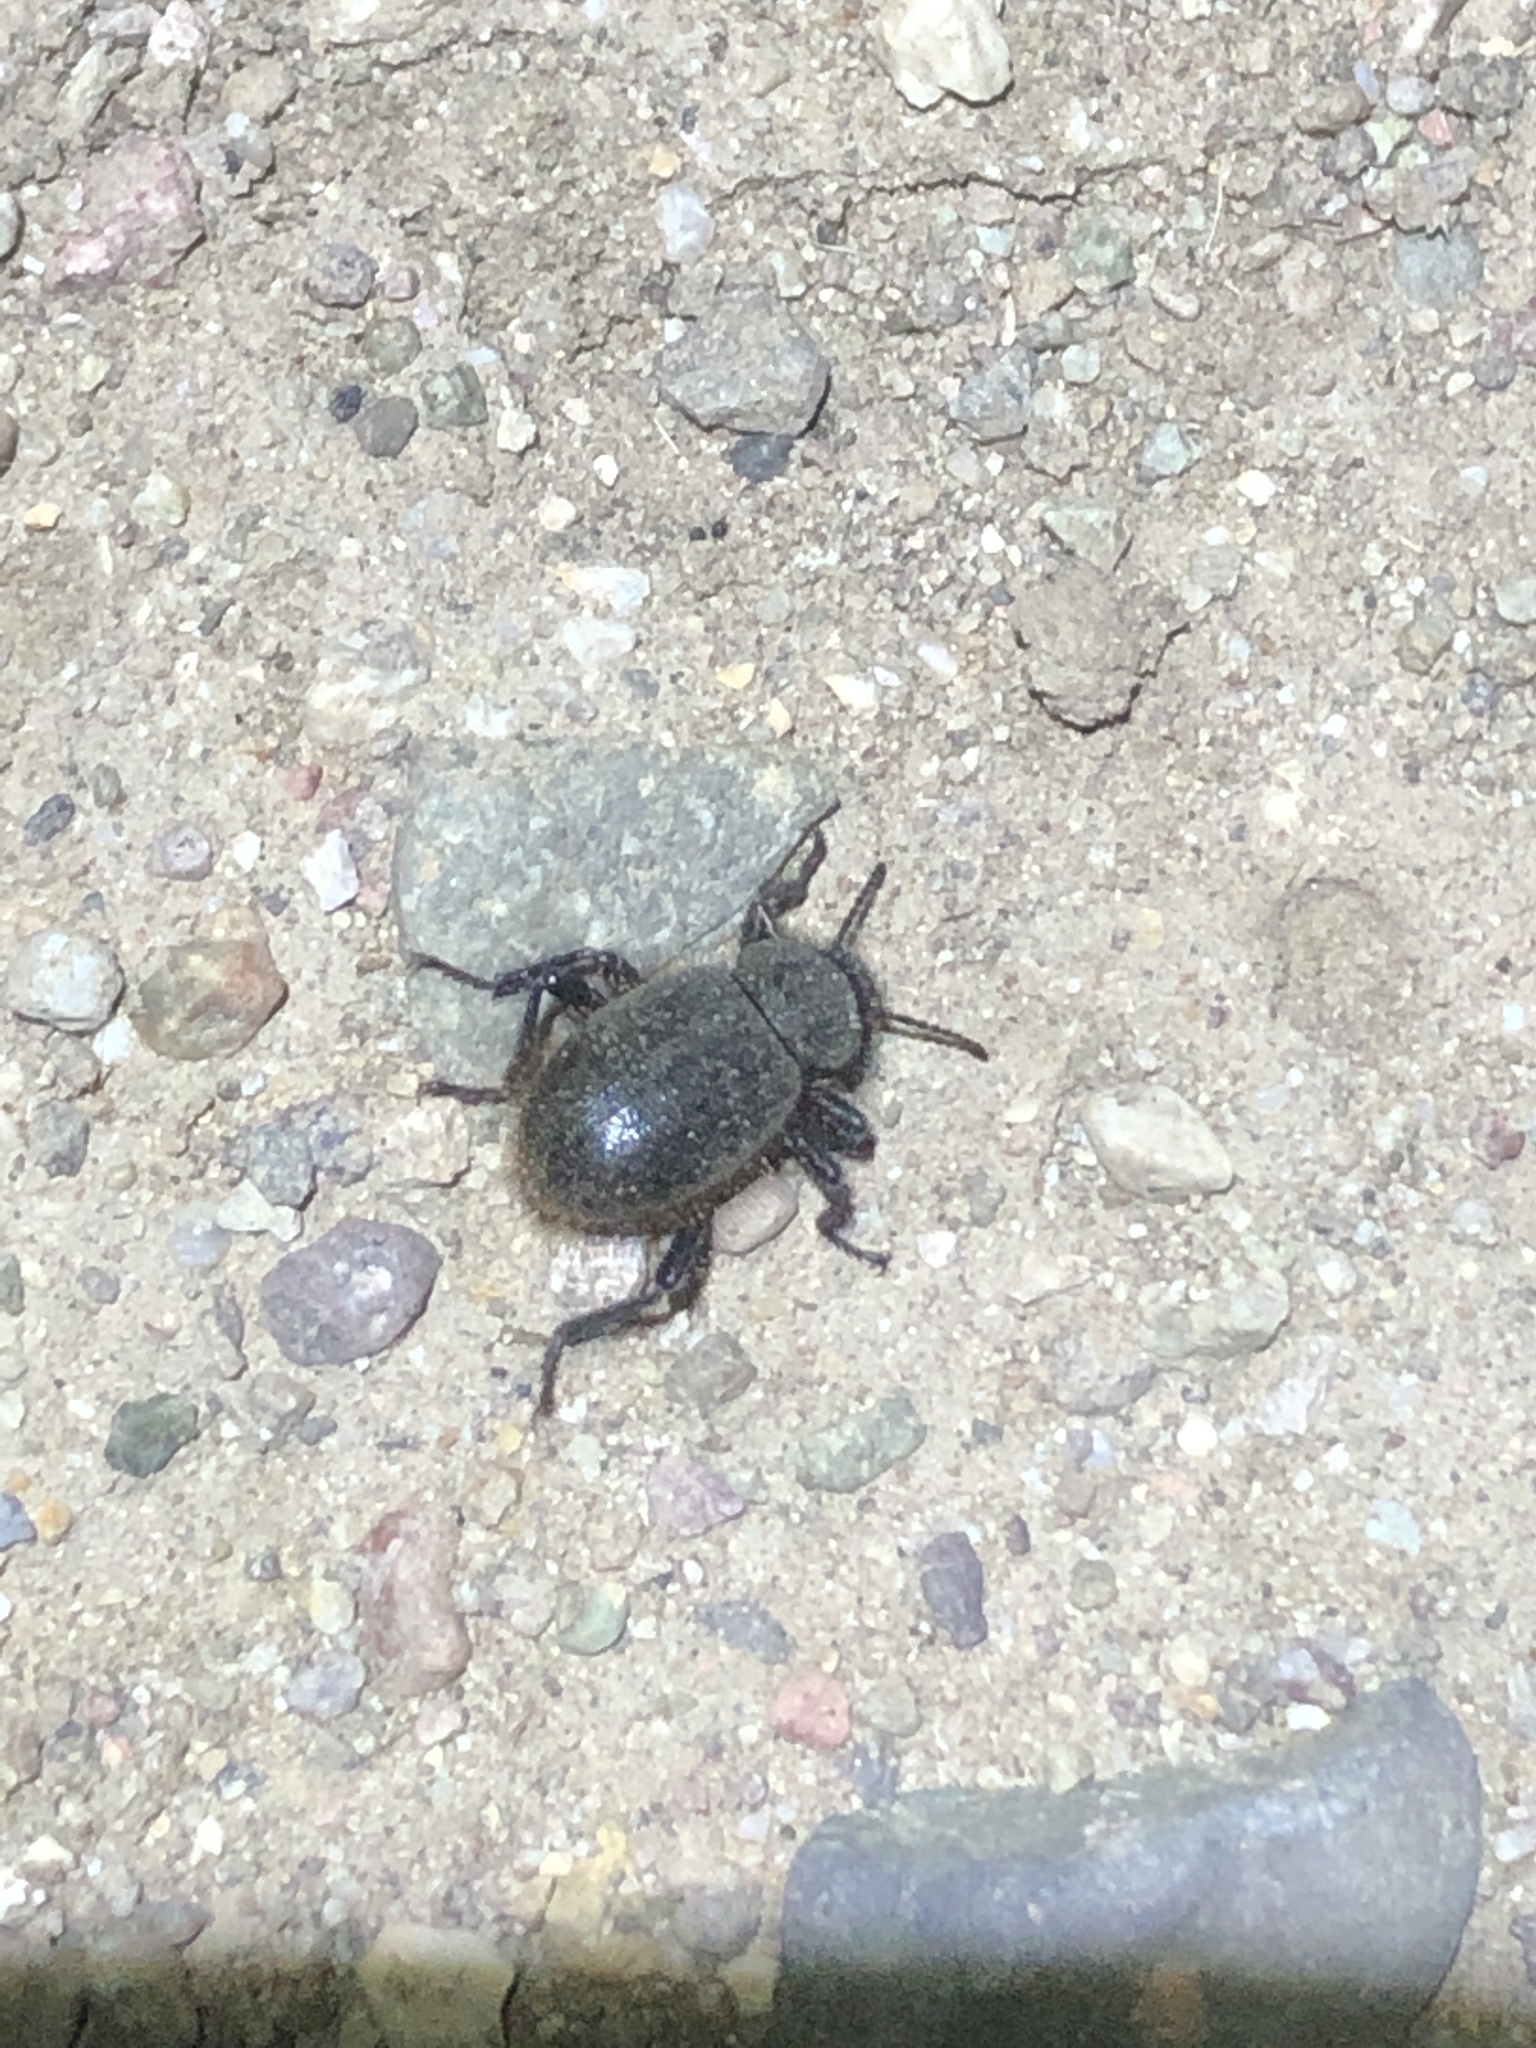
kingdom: Animalia
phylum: Arthropoda
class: Insecta
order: Coleoptera
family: Tenebrionidae
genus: Eleodes
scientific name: Eleodes osculans
